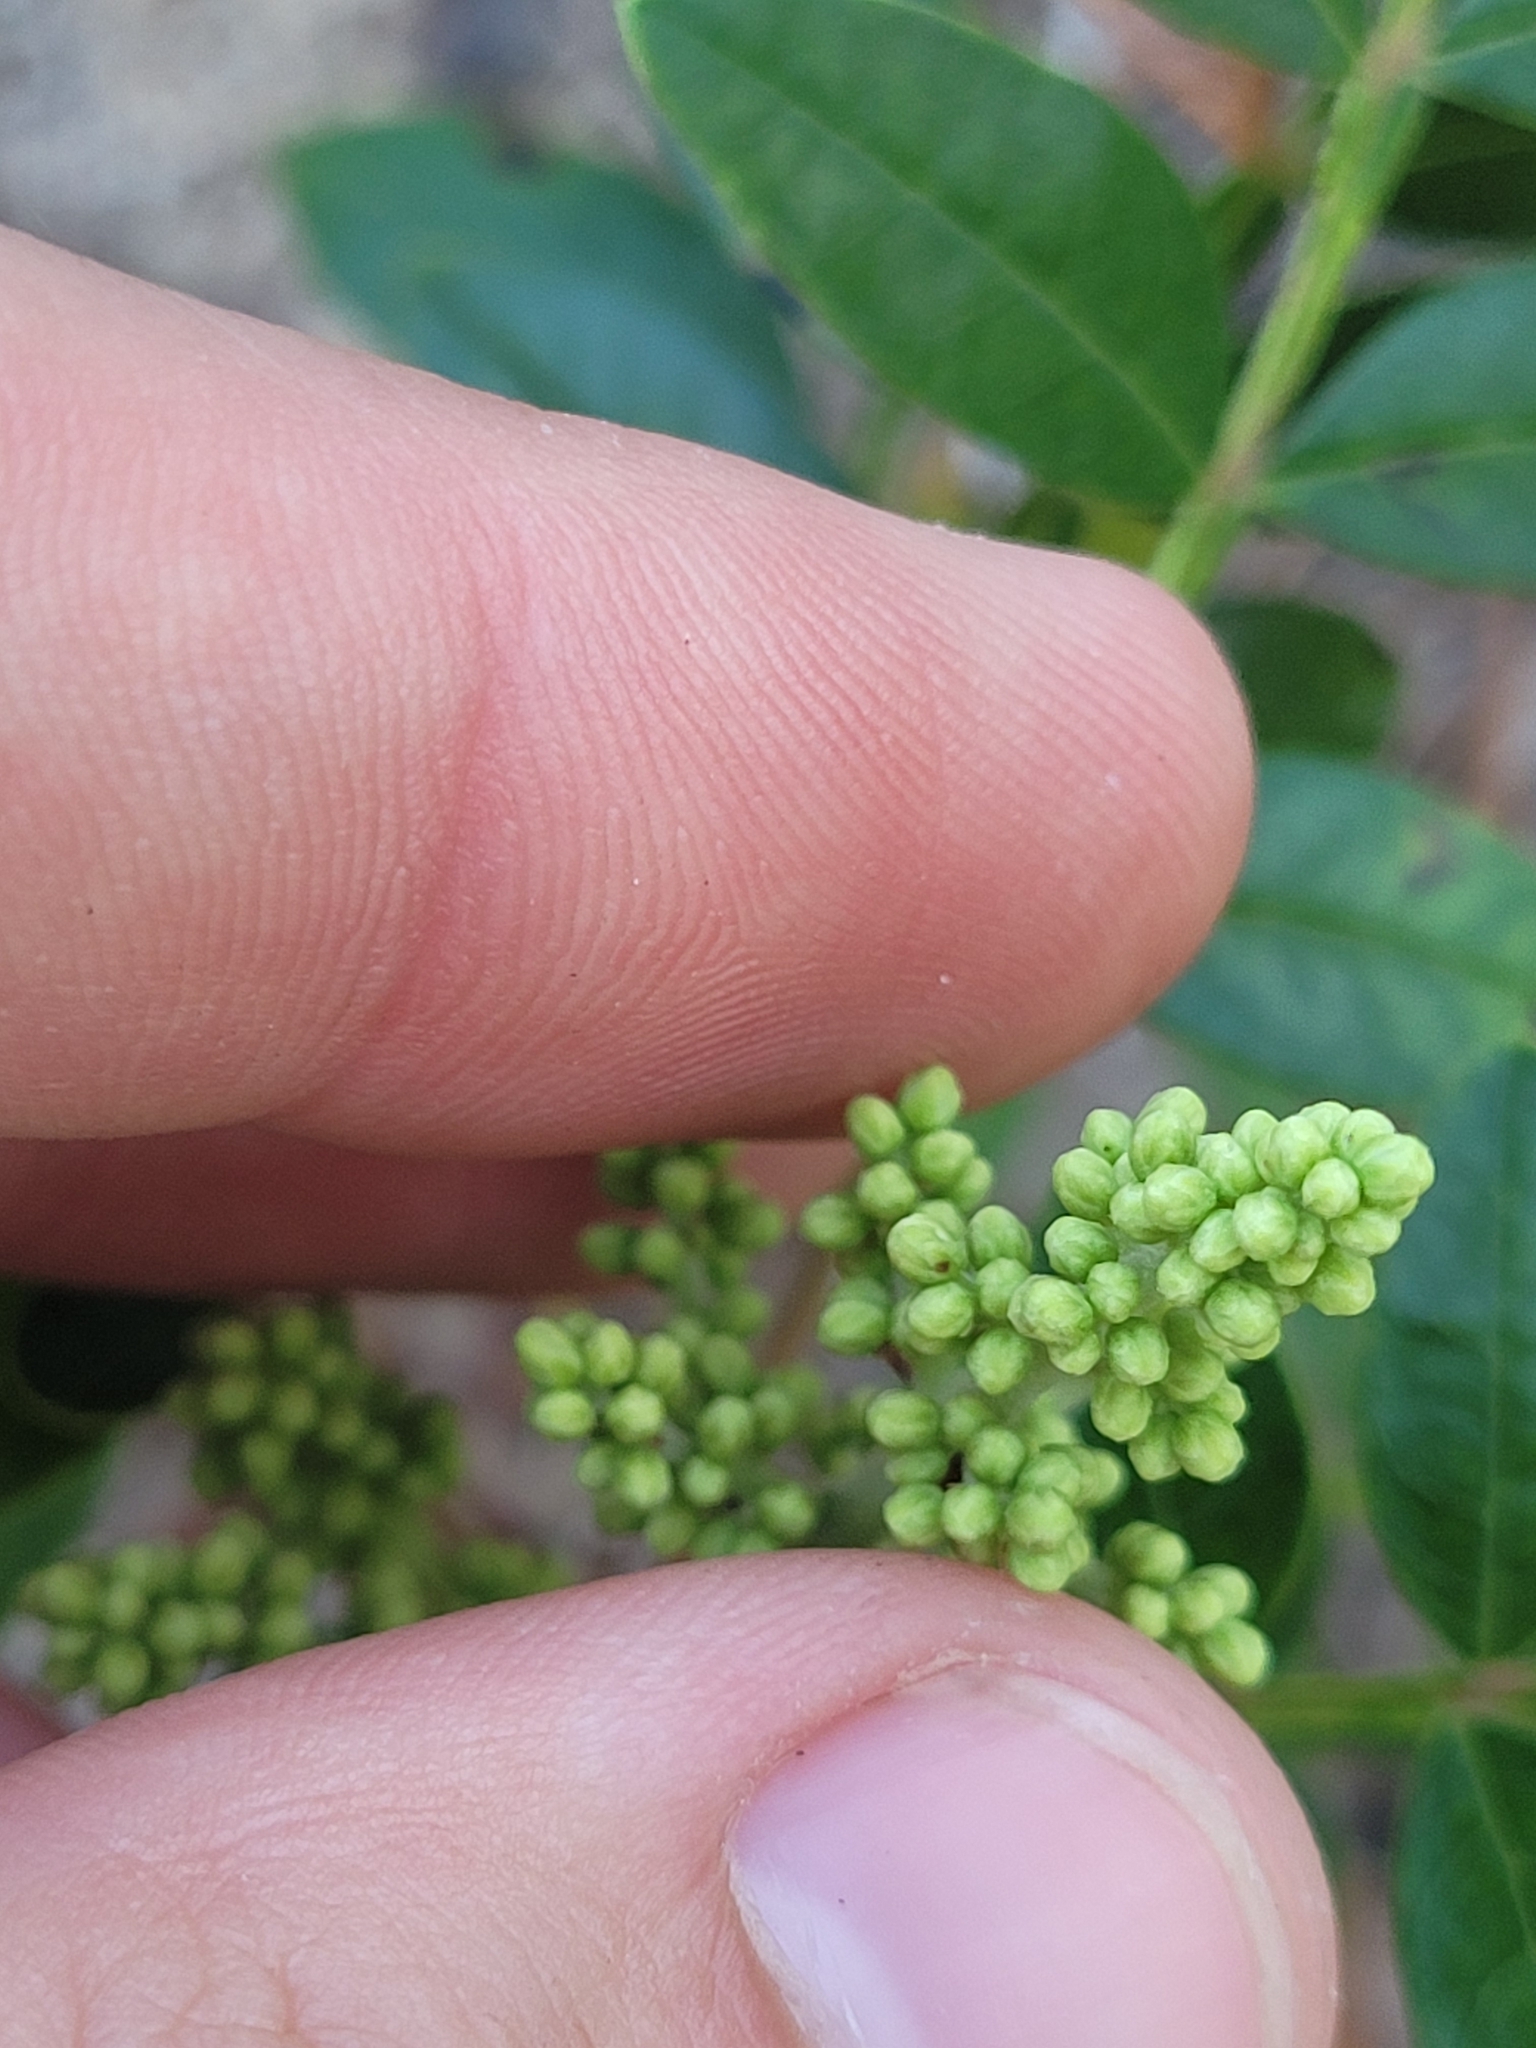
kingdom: Plantae
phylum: Tracheophyta
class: Magnoliopsida
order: Sapindales
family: Anacardiaceae
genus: Rhus
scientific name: Rhus copallina
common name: Shining sumac
